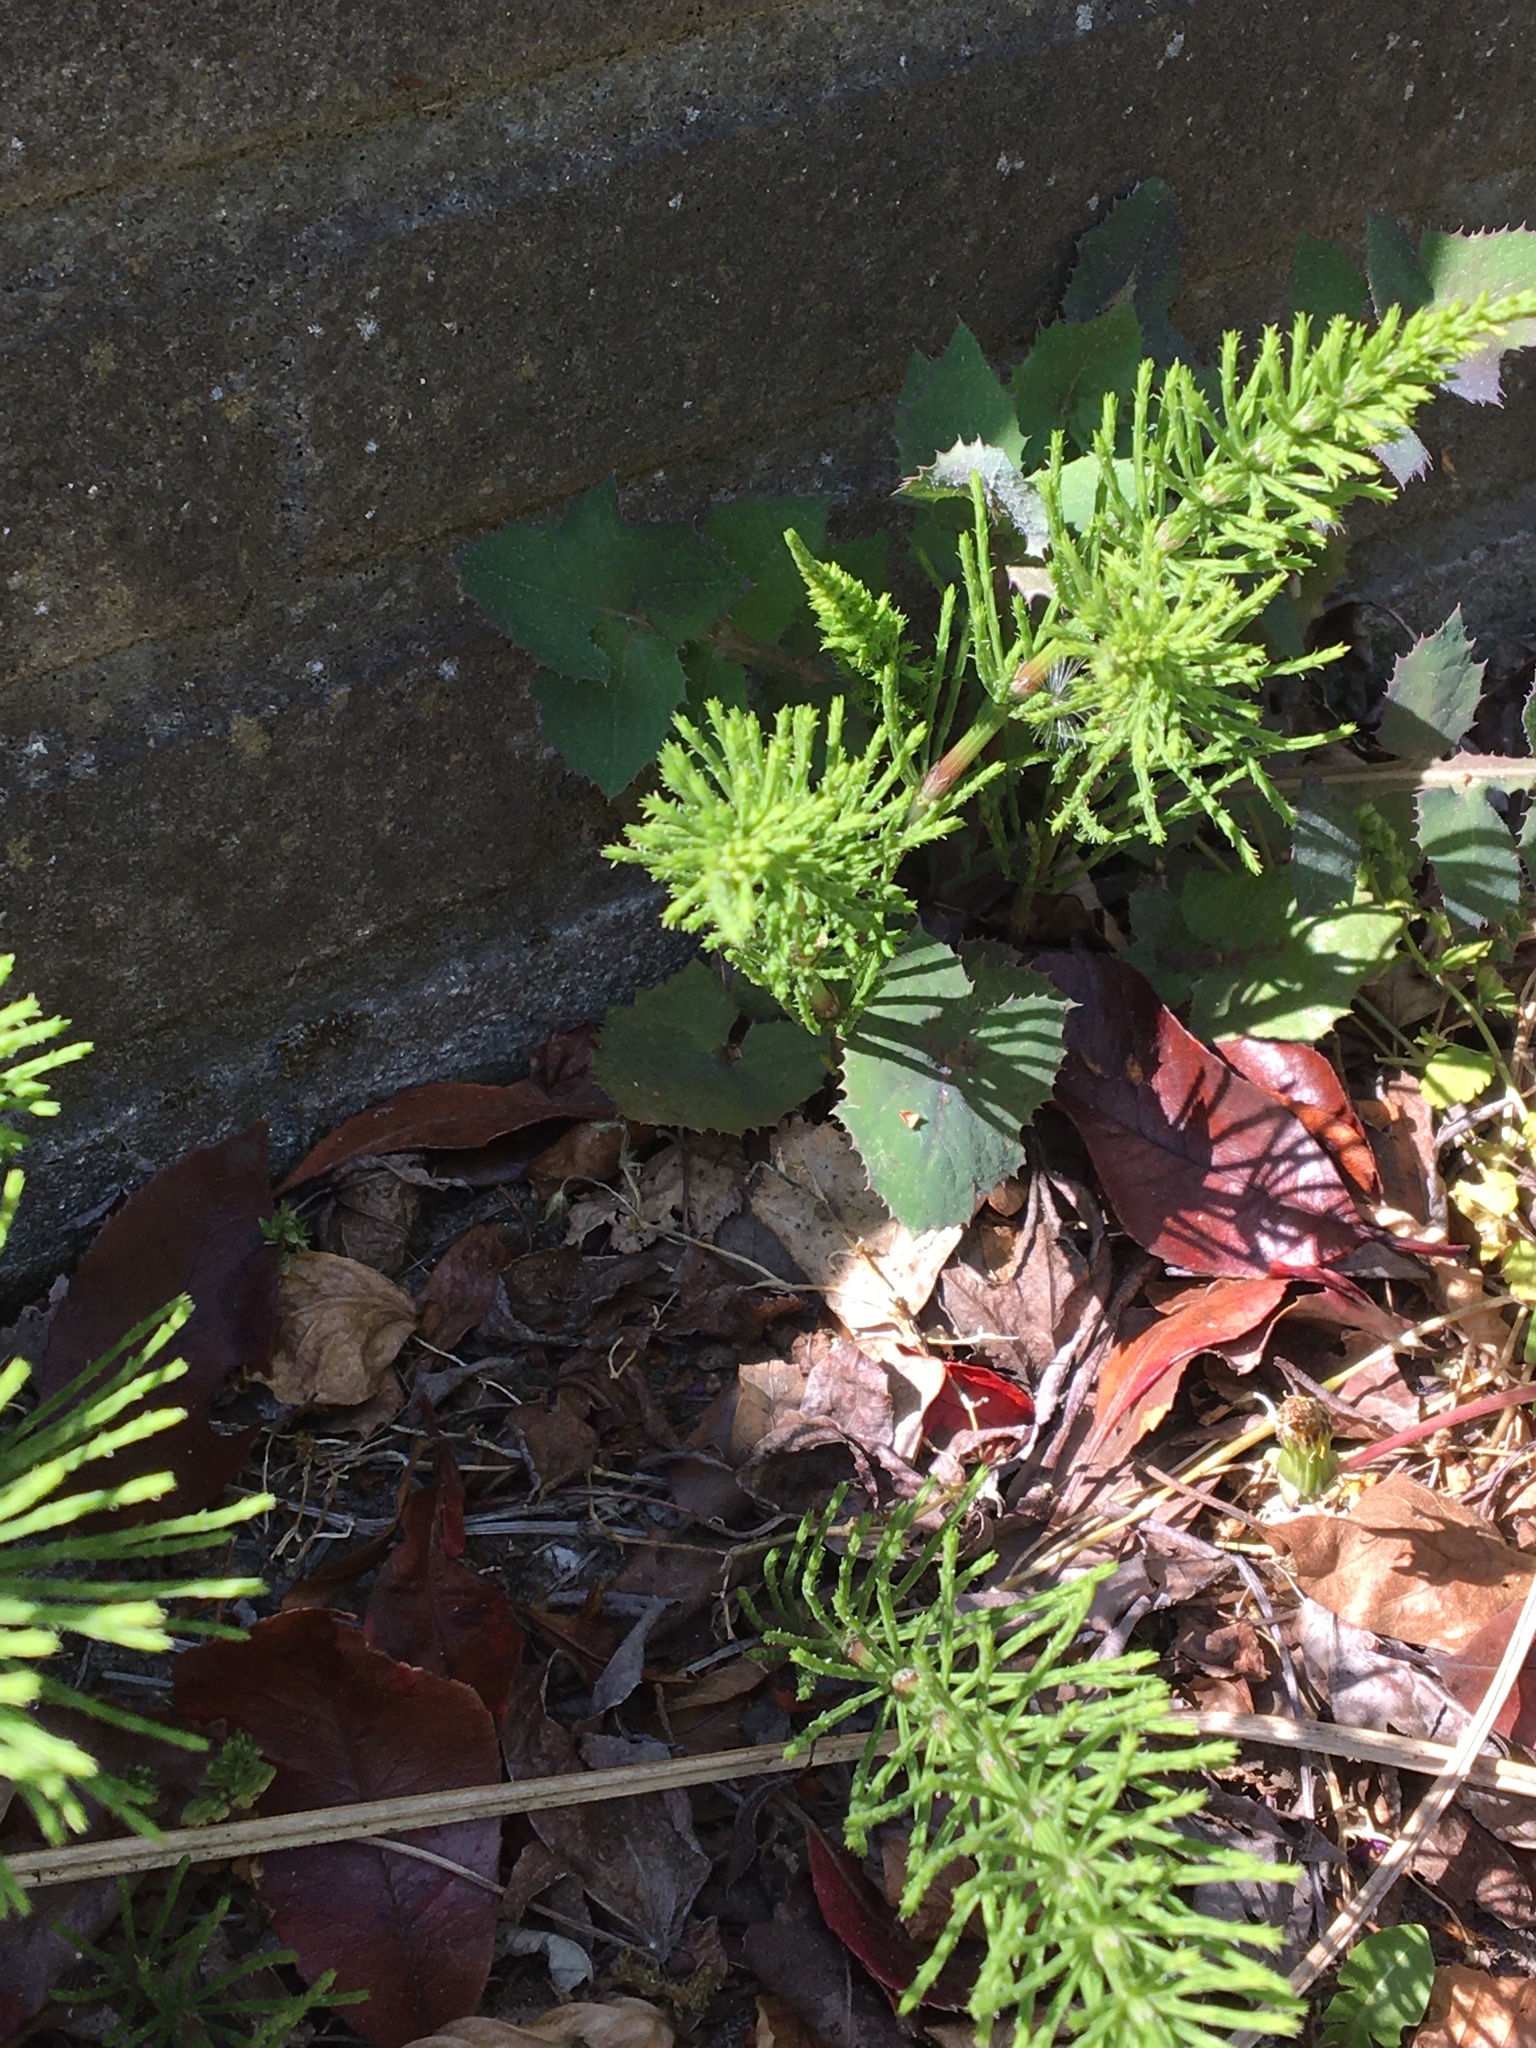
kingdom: Plantae
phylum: Tracheophyta
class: Polypodiopsida
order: Equisetales
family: Equisetaceae
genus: Equisetum
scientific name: Equisetum arvense
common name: Field horsetail
